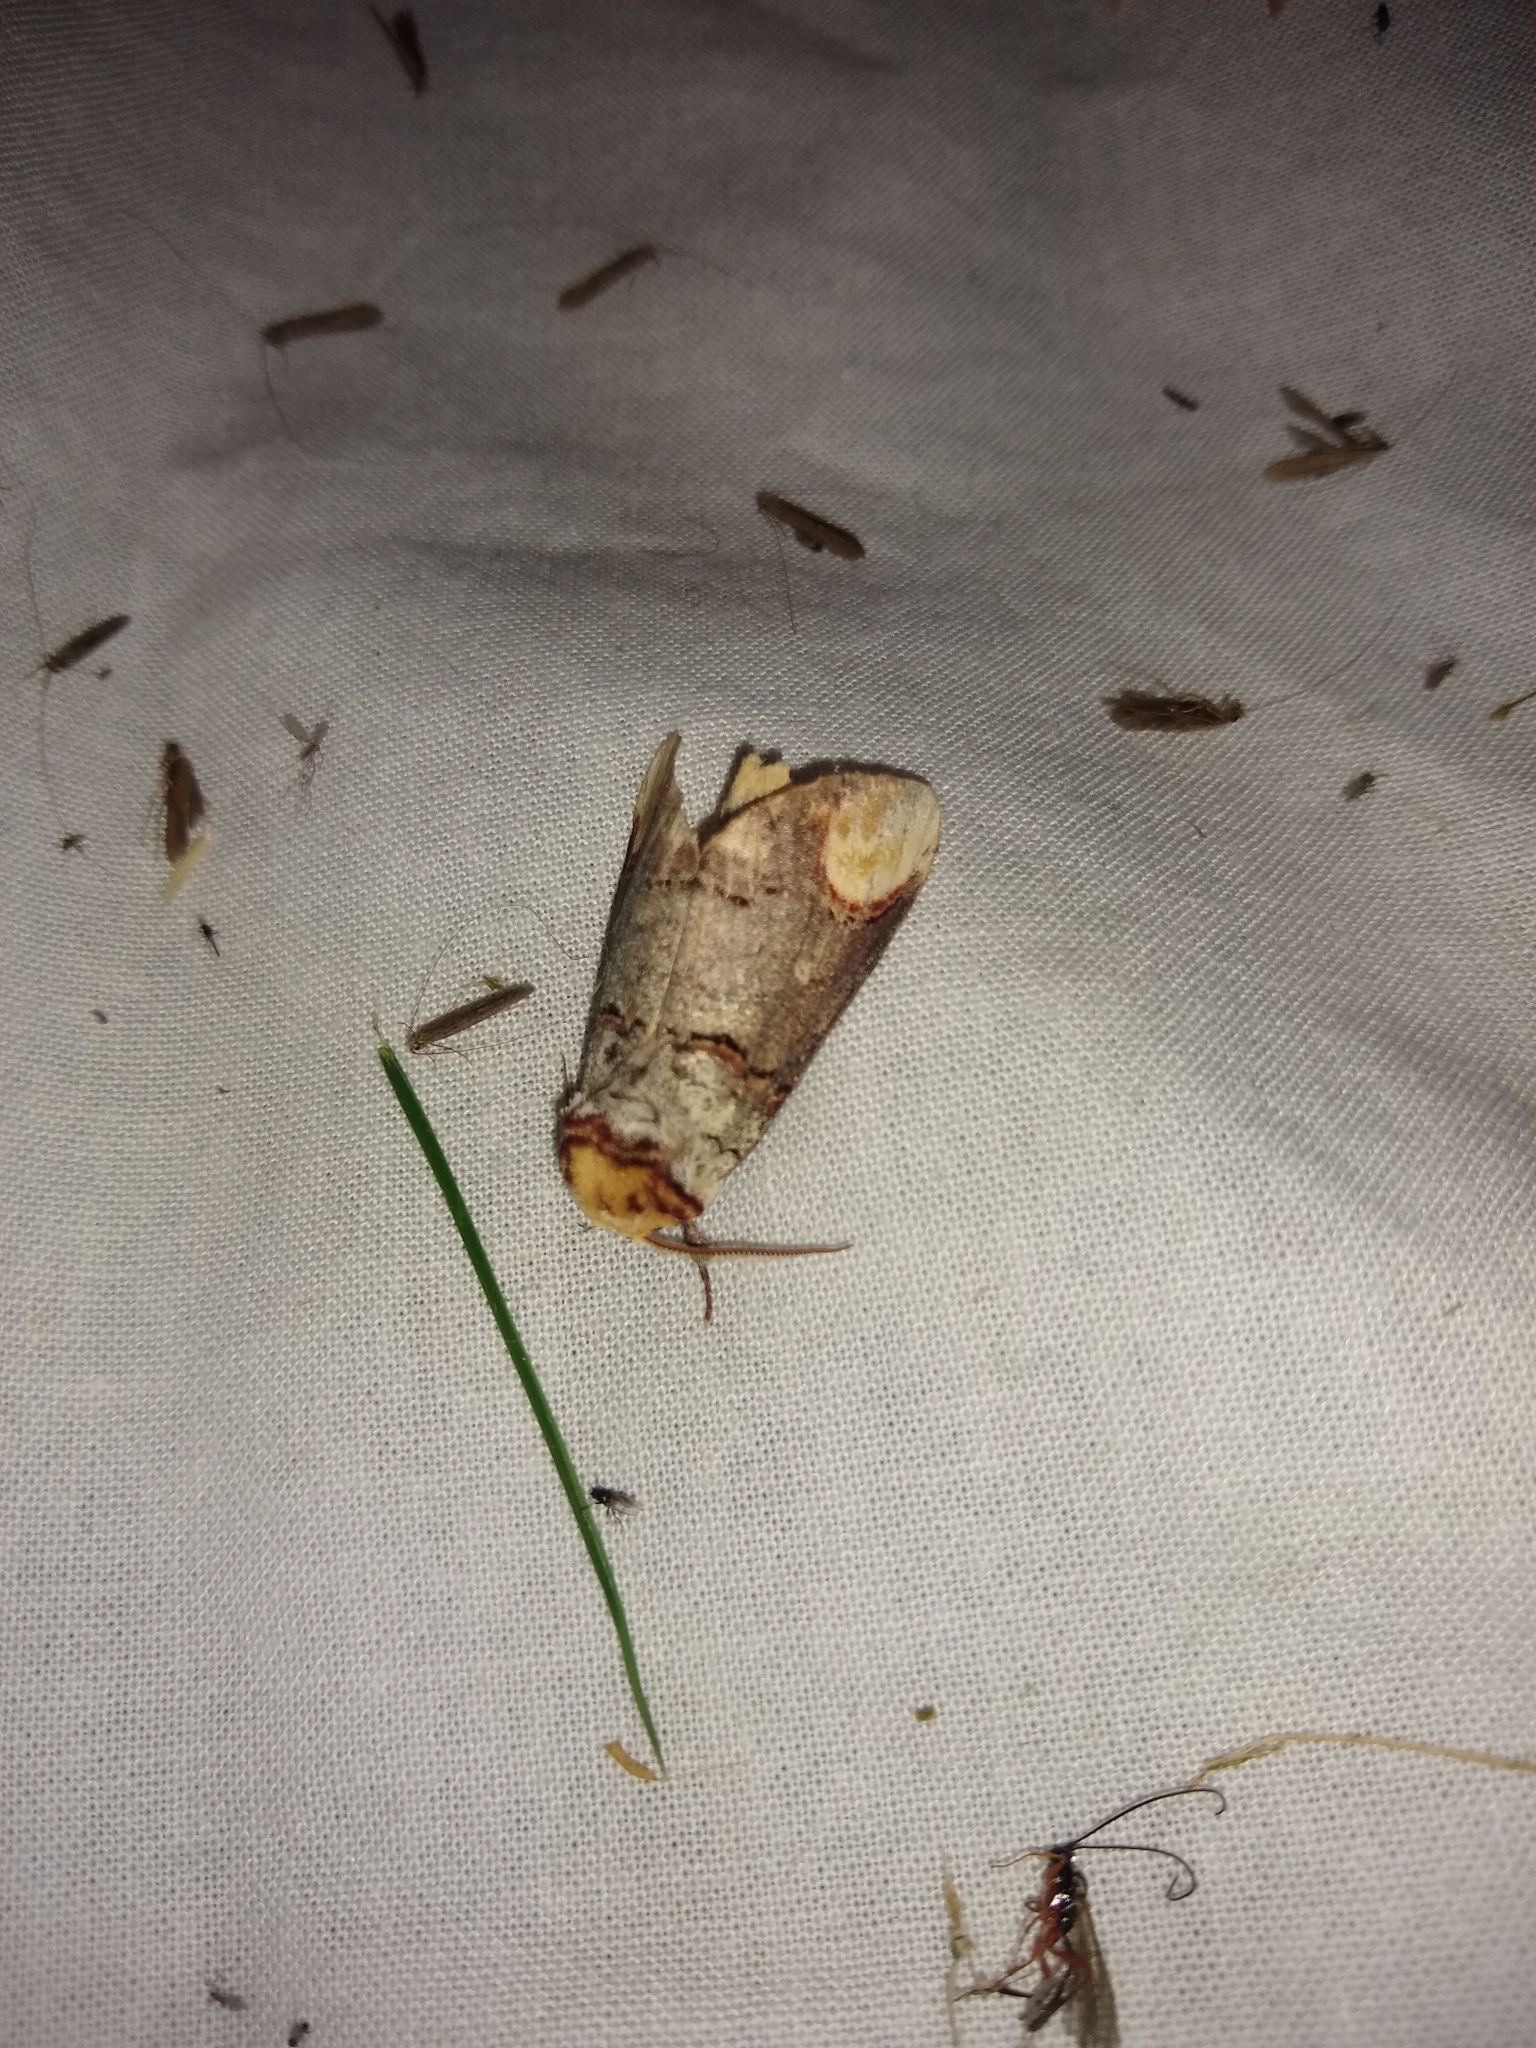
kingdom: Animalia
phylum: Arthropoda
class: Insecta
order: Lepidoptera
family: Notodontidae
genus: Phalera
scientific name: Phalera bucephala
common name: Buff-tip
